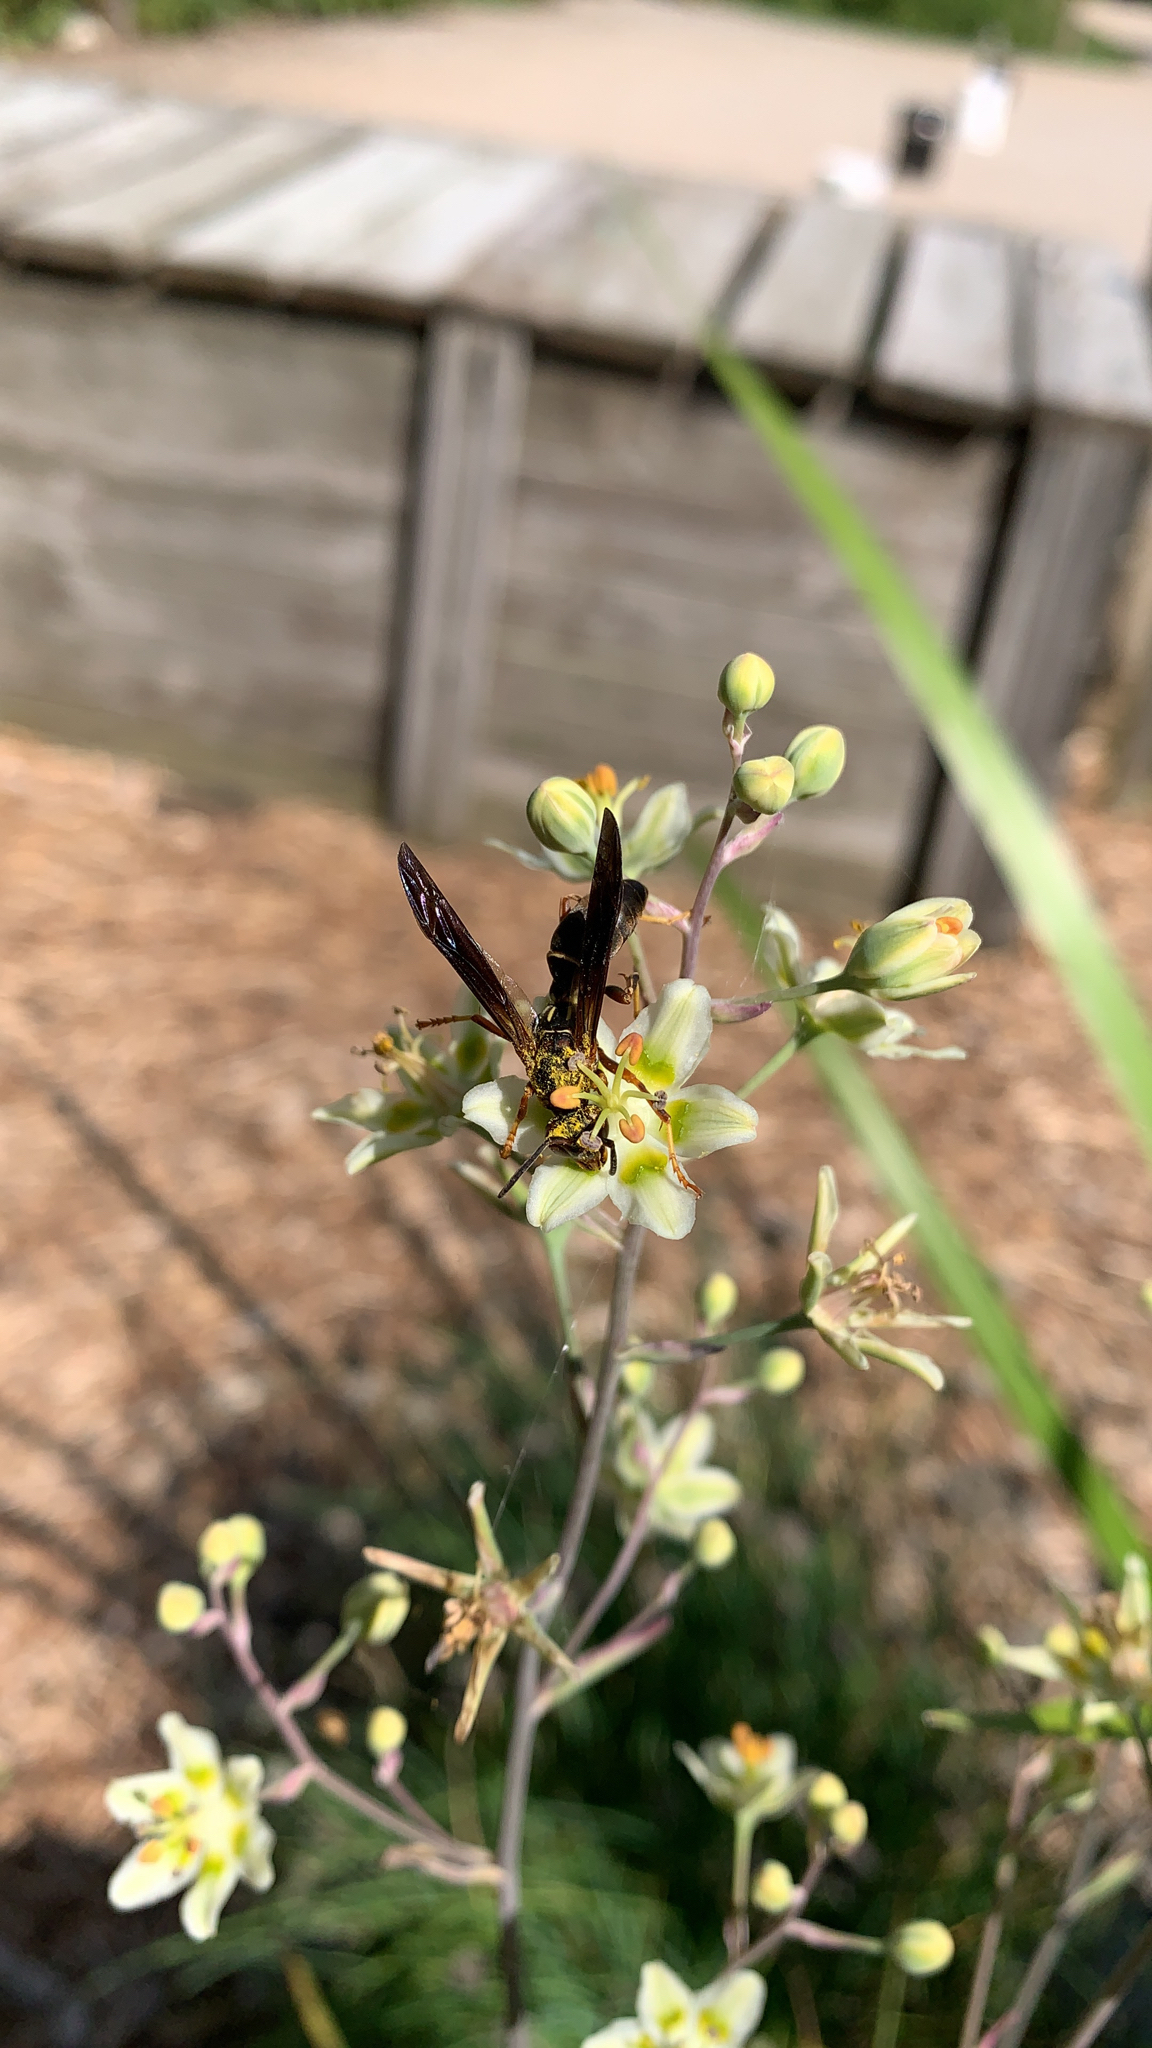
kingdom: Animalia
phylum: Arthropoda
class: Insecta
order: Hymenoptera
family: Vespidae
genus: Fuscopolistes
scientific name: Fuscopolistes
